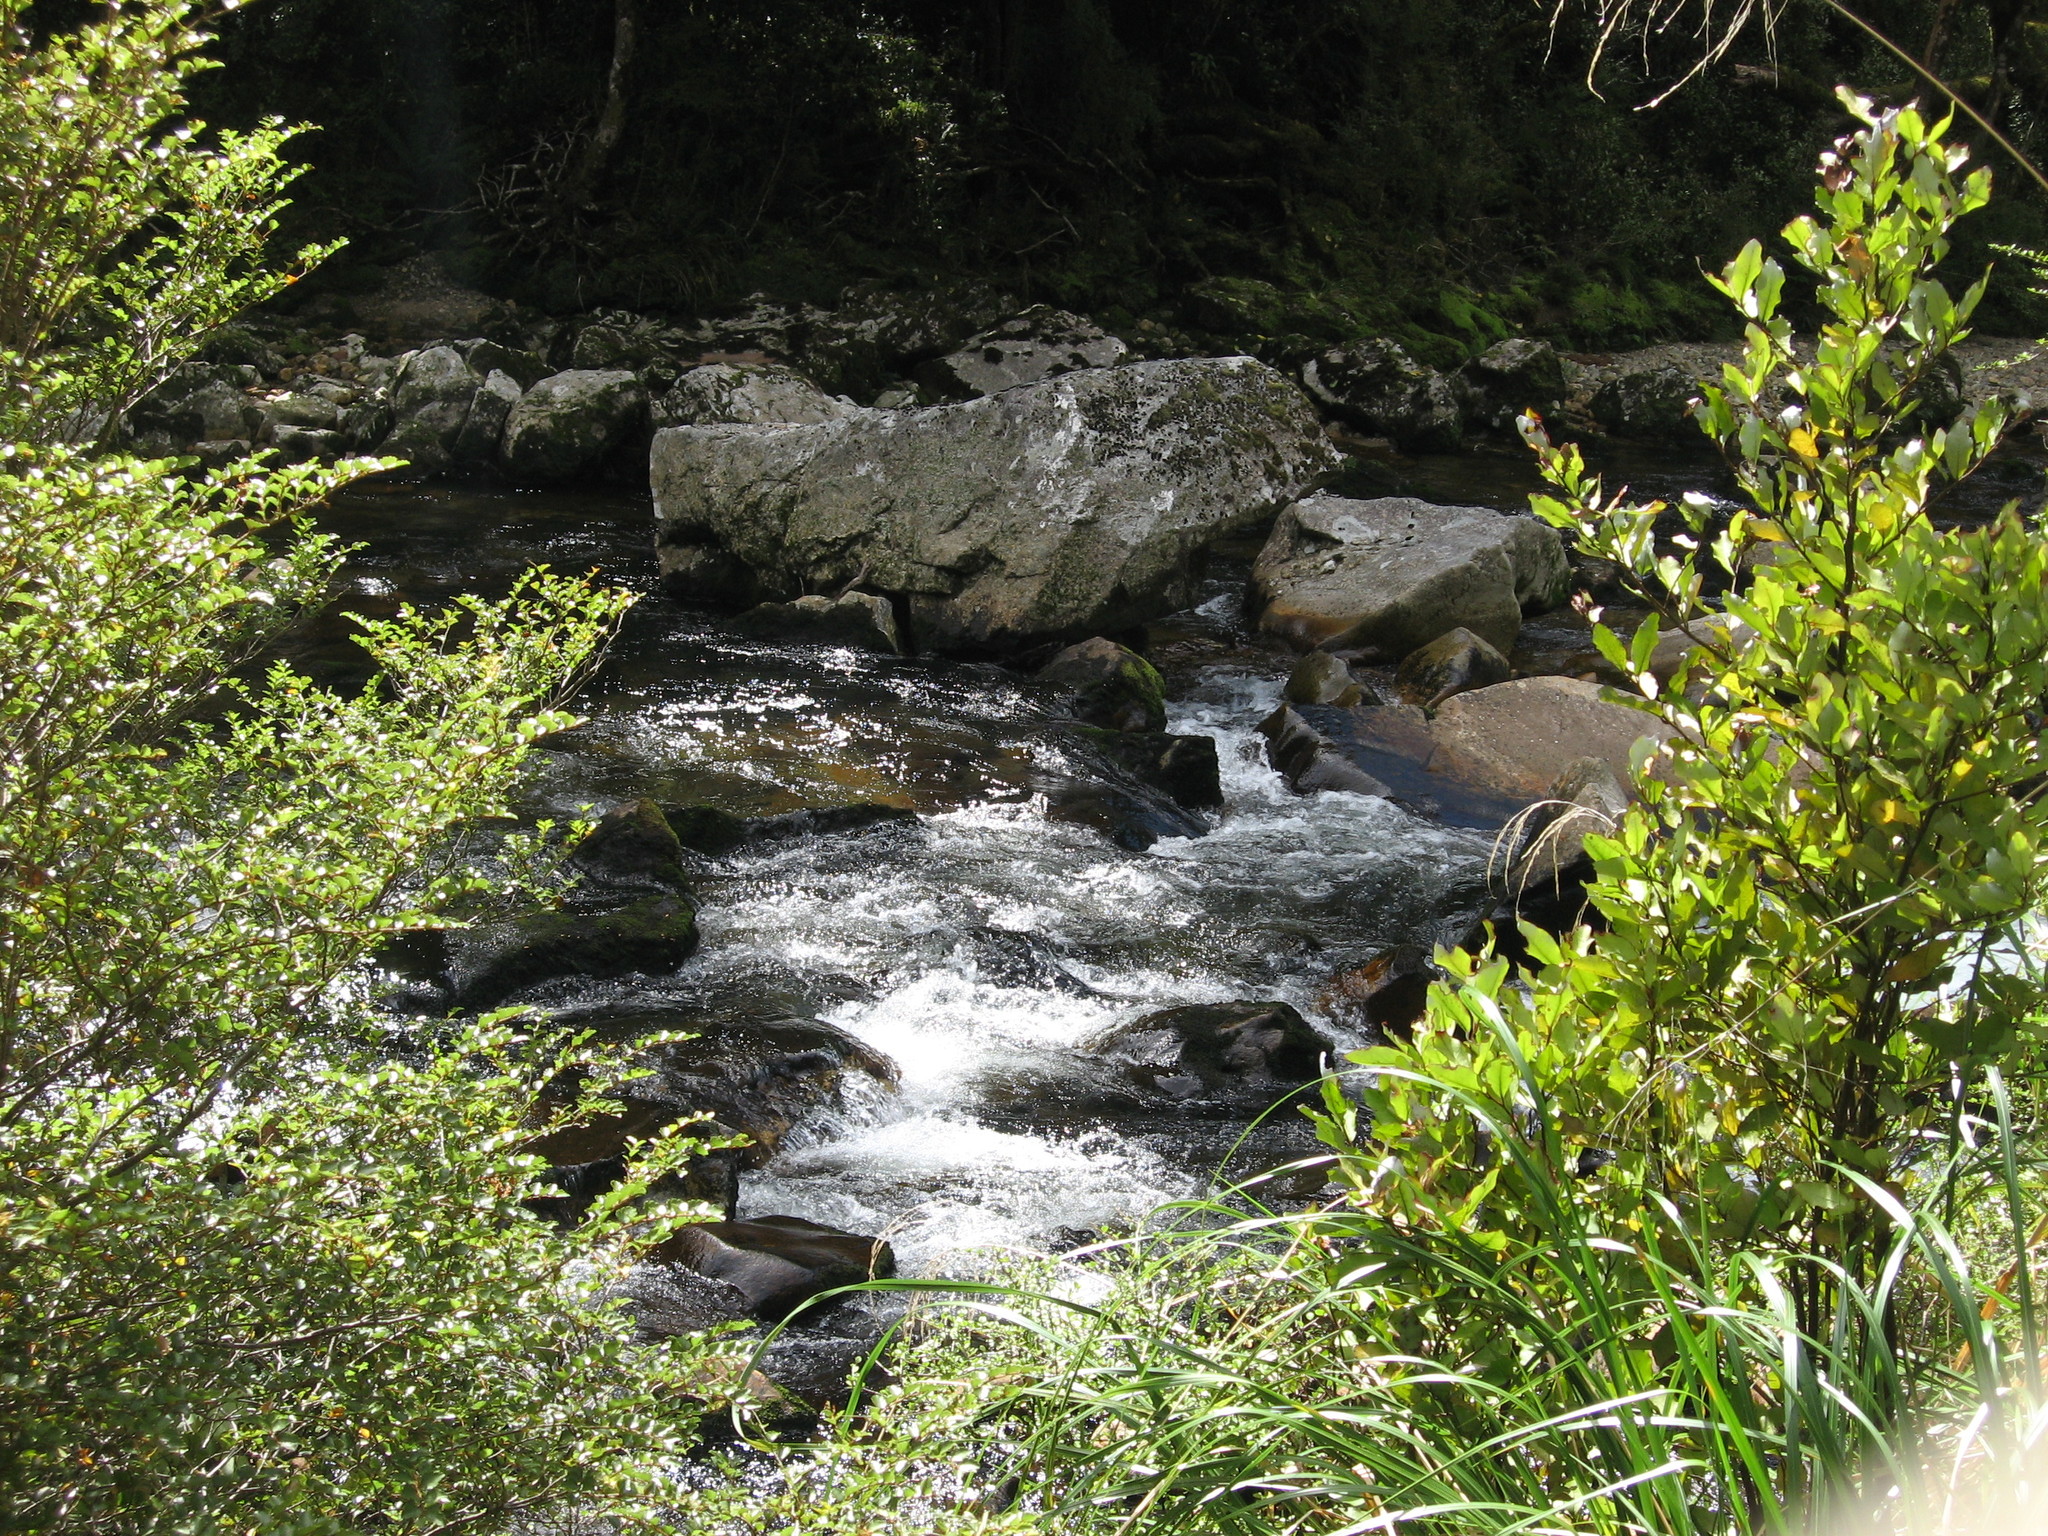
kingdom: Plantae
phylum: Tracheophyta
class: Magnoliopsida
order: Fagales
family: Nothofagaceae
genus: Nothofagus
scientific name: Nothofagus menziesii
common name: Silver beech
